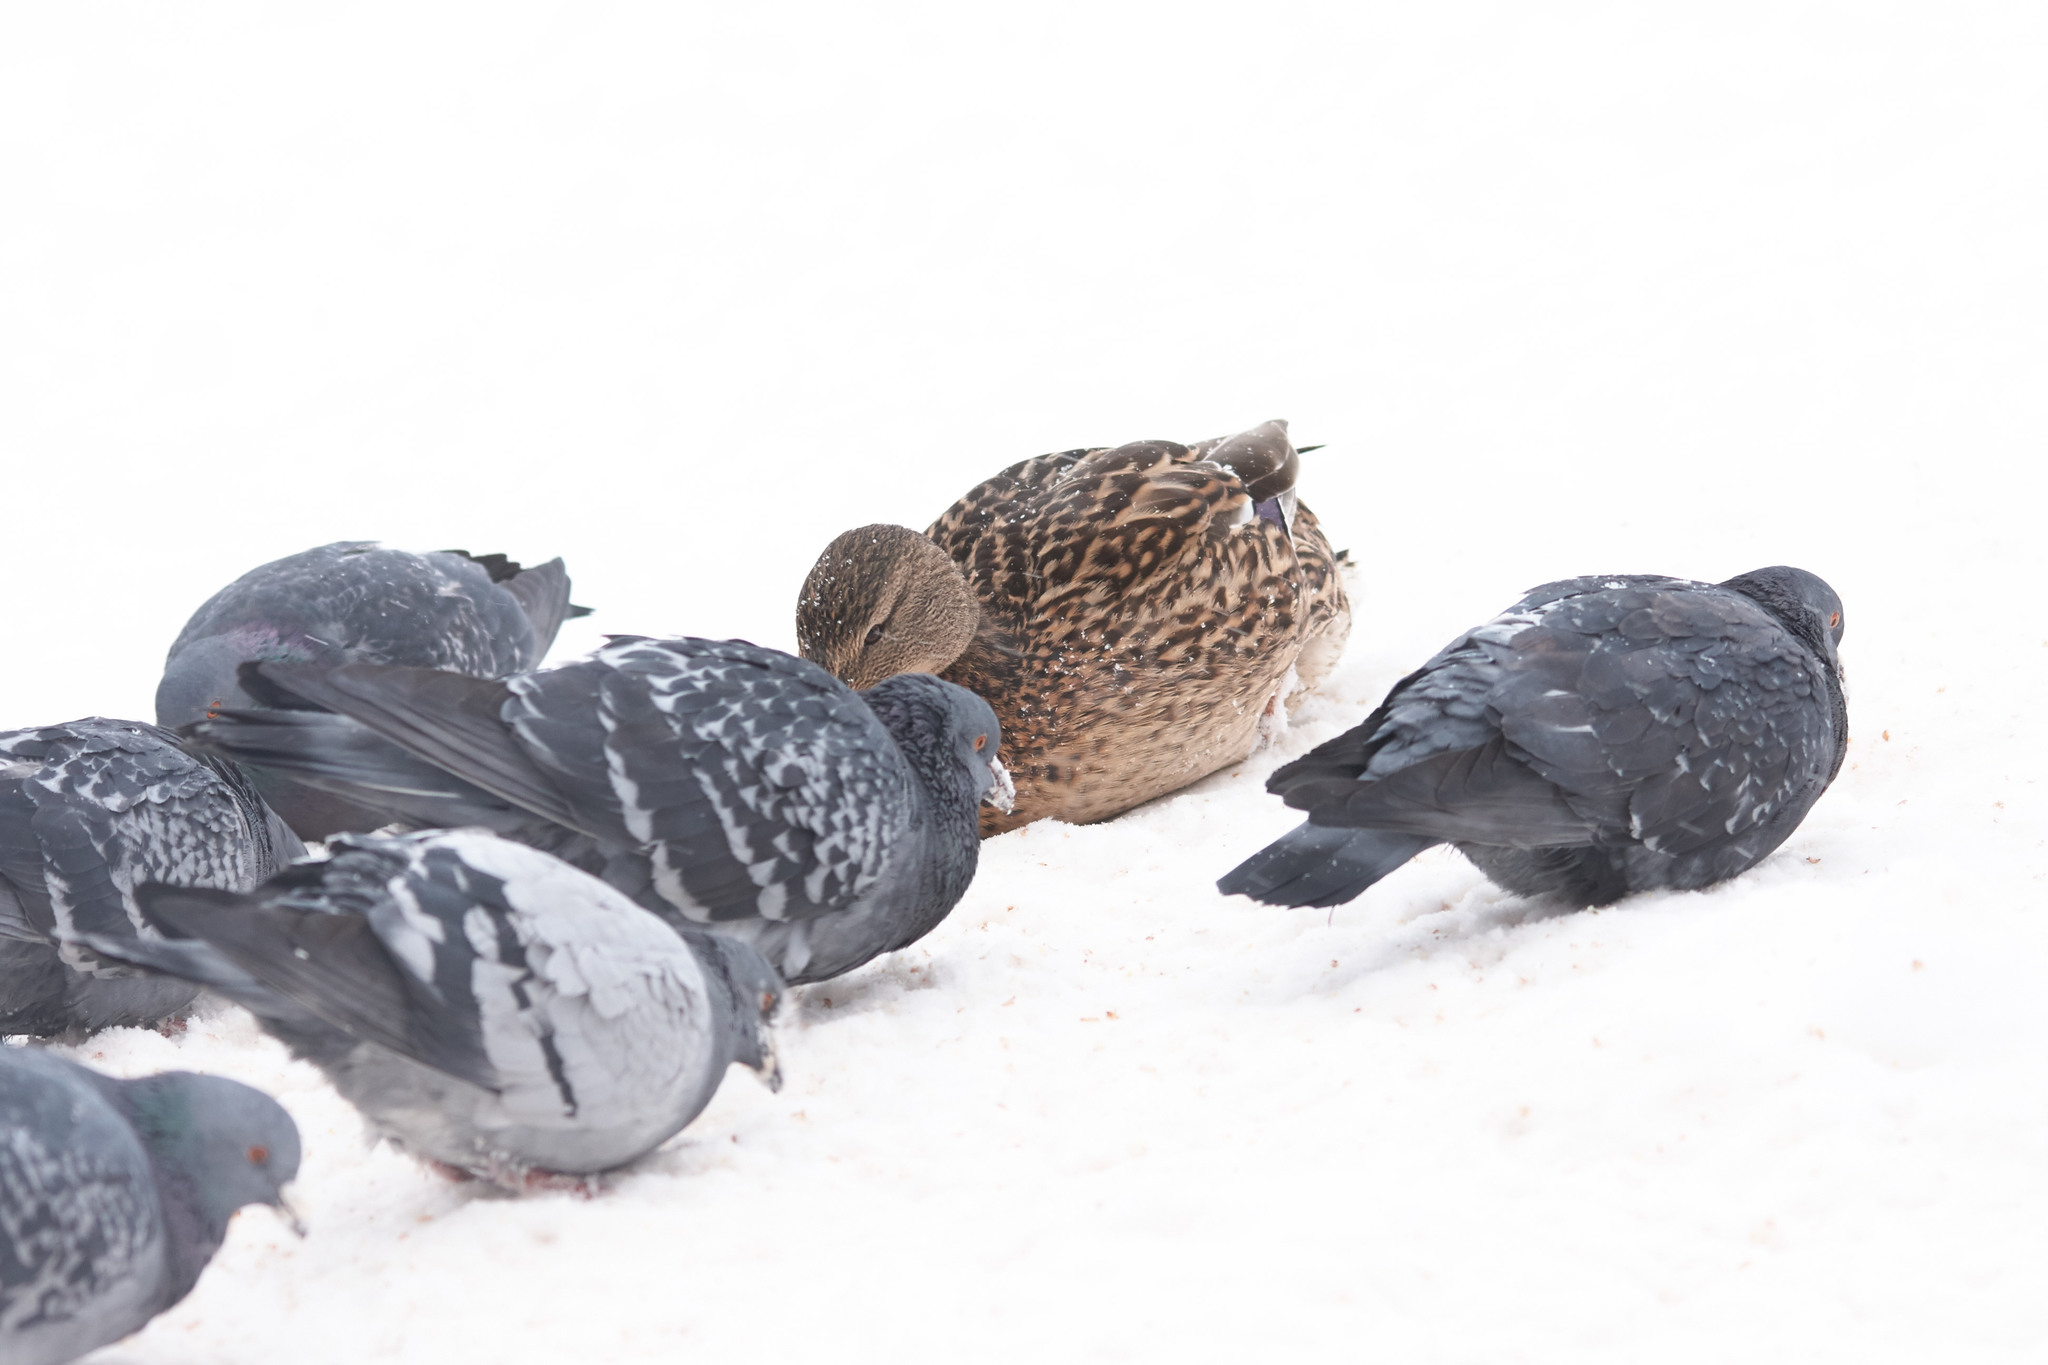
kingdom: Animalia
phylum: Chordata
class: Aves
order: Columbiformes
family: Columbidae
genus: Columba
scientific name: Columba livia
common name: Rock pigeon
